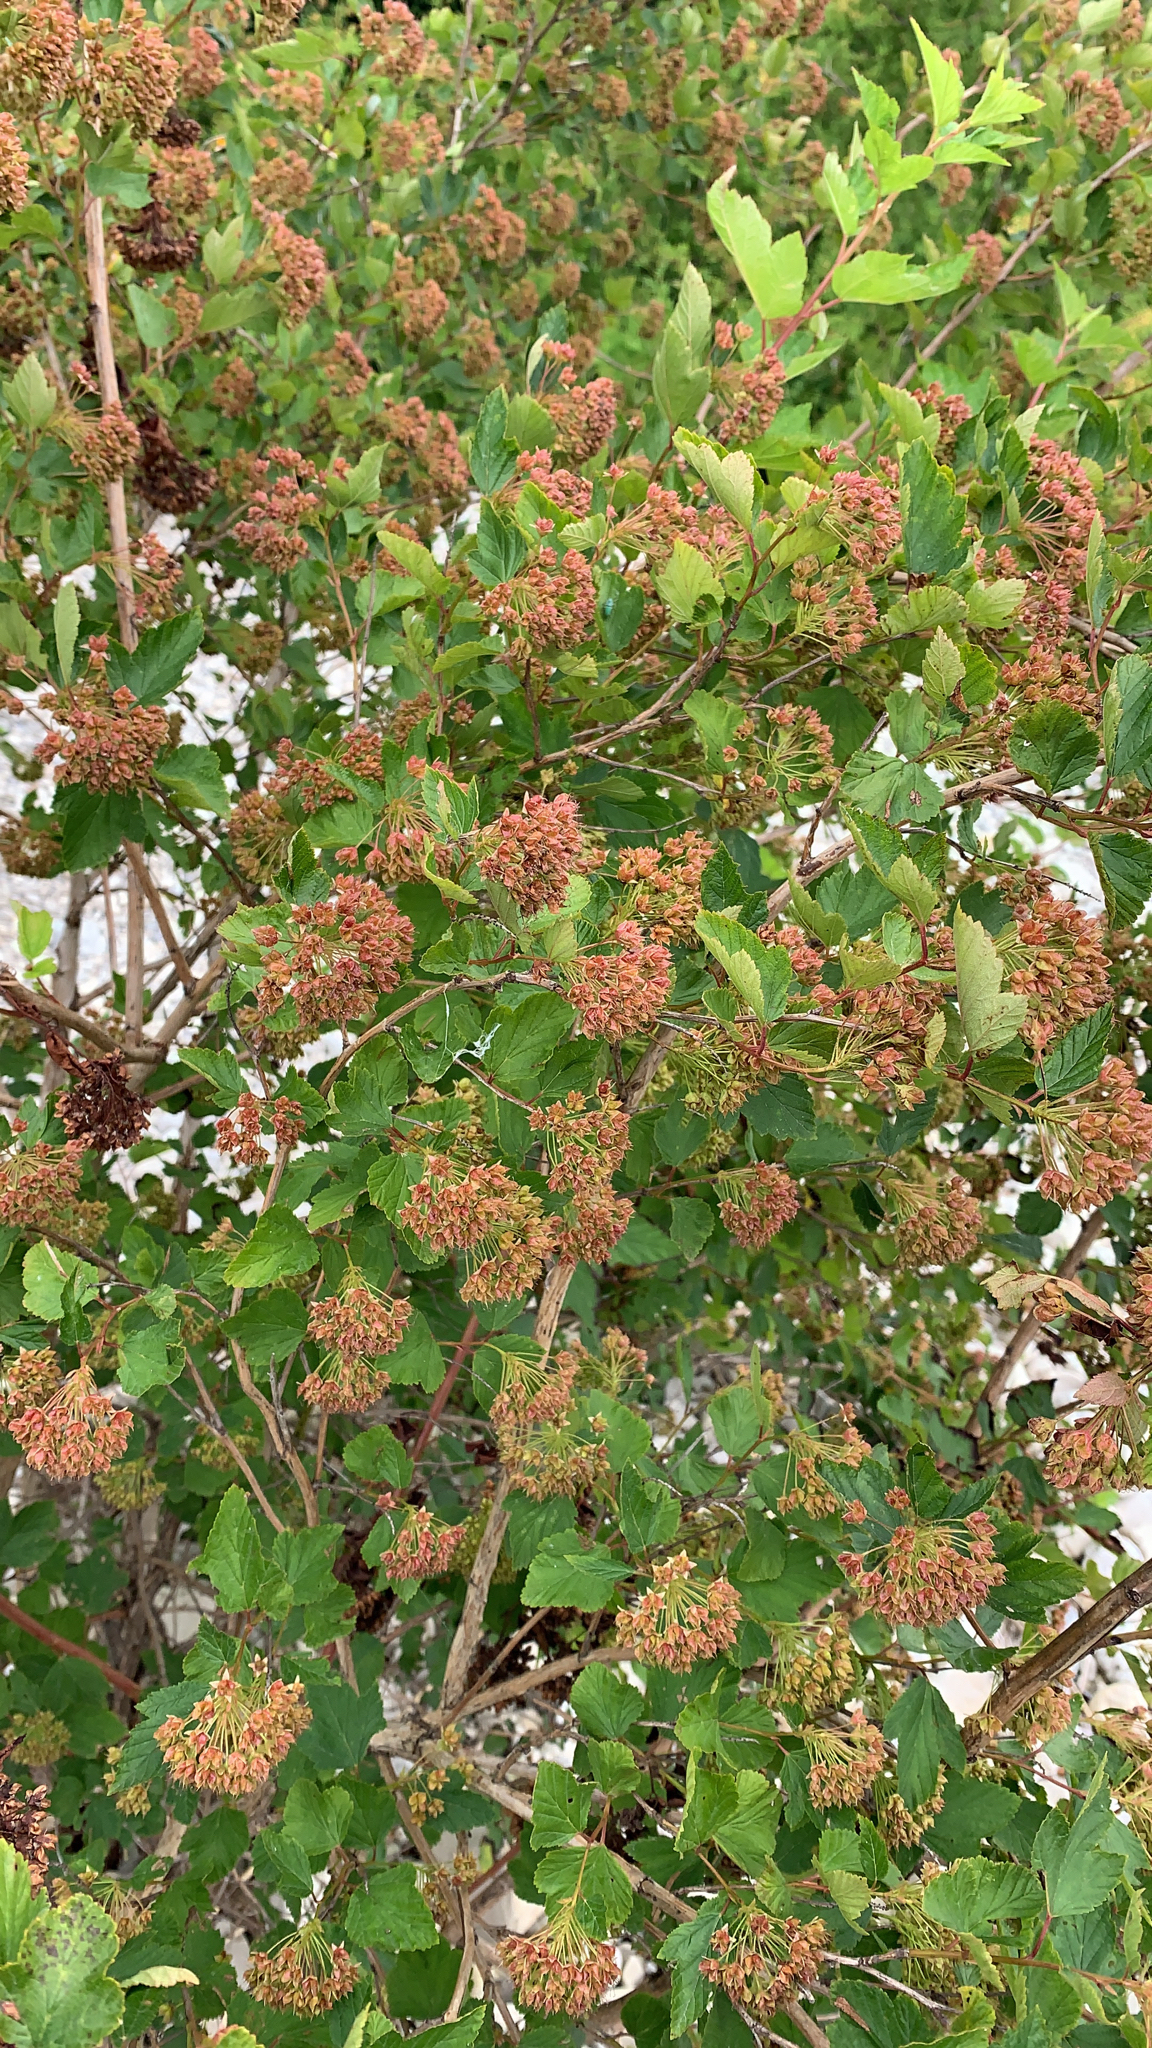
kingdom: Plantae
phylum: Tracheophyta
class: Magnoliopsida
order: Rosales
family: Rosaceae
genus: Physocarpus
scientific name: Physocarpus opulifolius
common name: Ninebark
